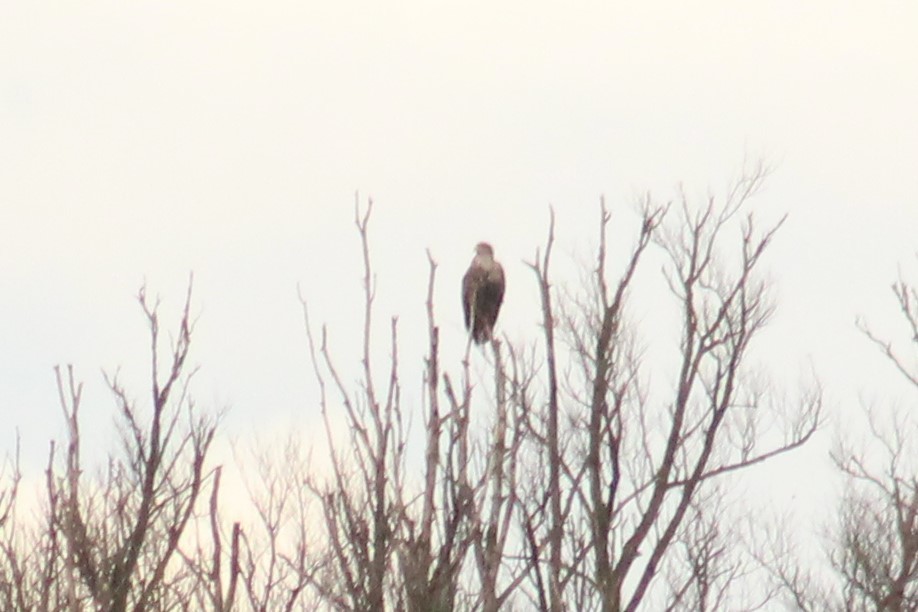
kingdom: Animalia
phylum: Chordata
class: Aves
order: Accipitriformes
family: Accipitridae
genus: Haliaeetus
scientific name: Haliaeetus albicilla
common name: White-tailed eagle
